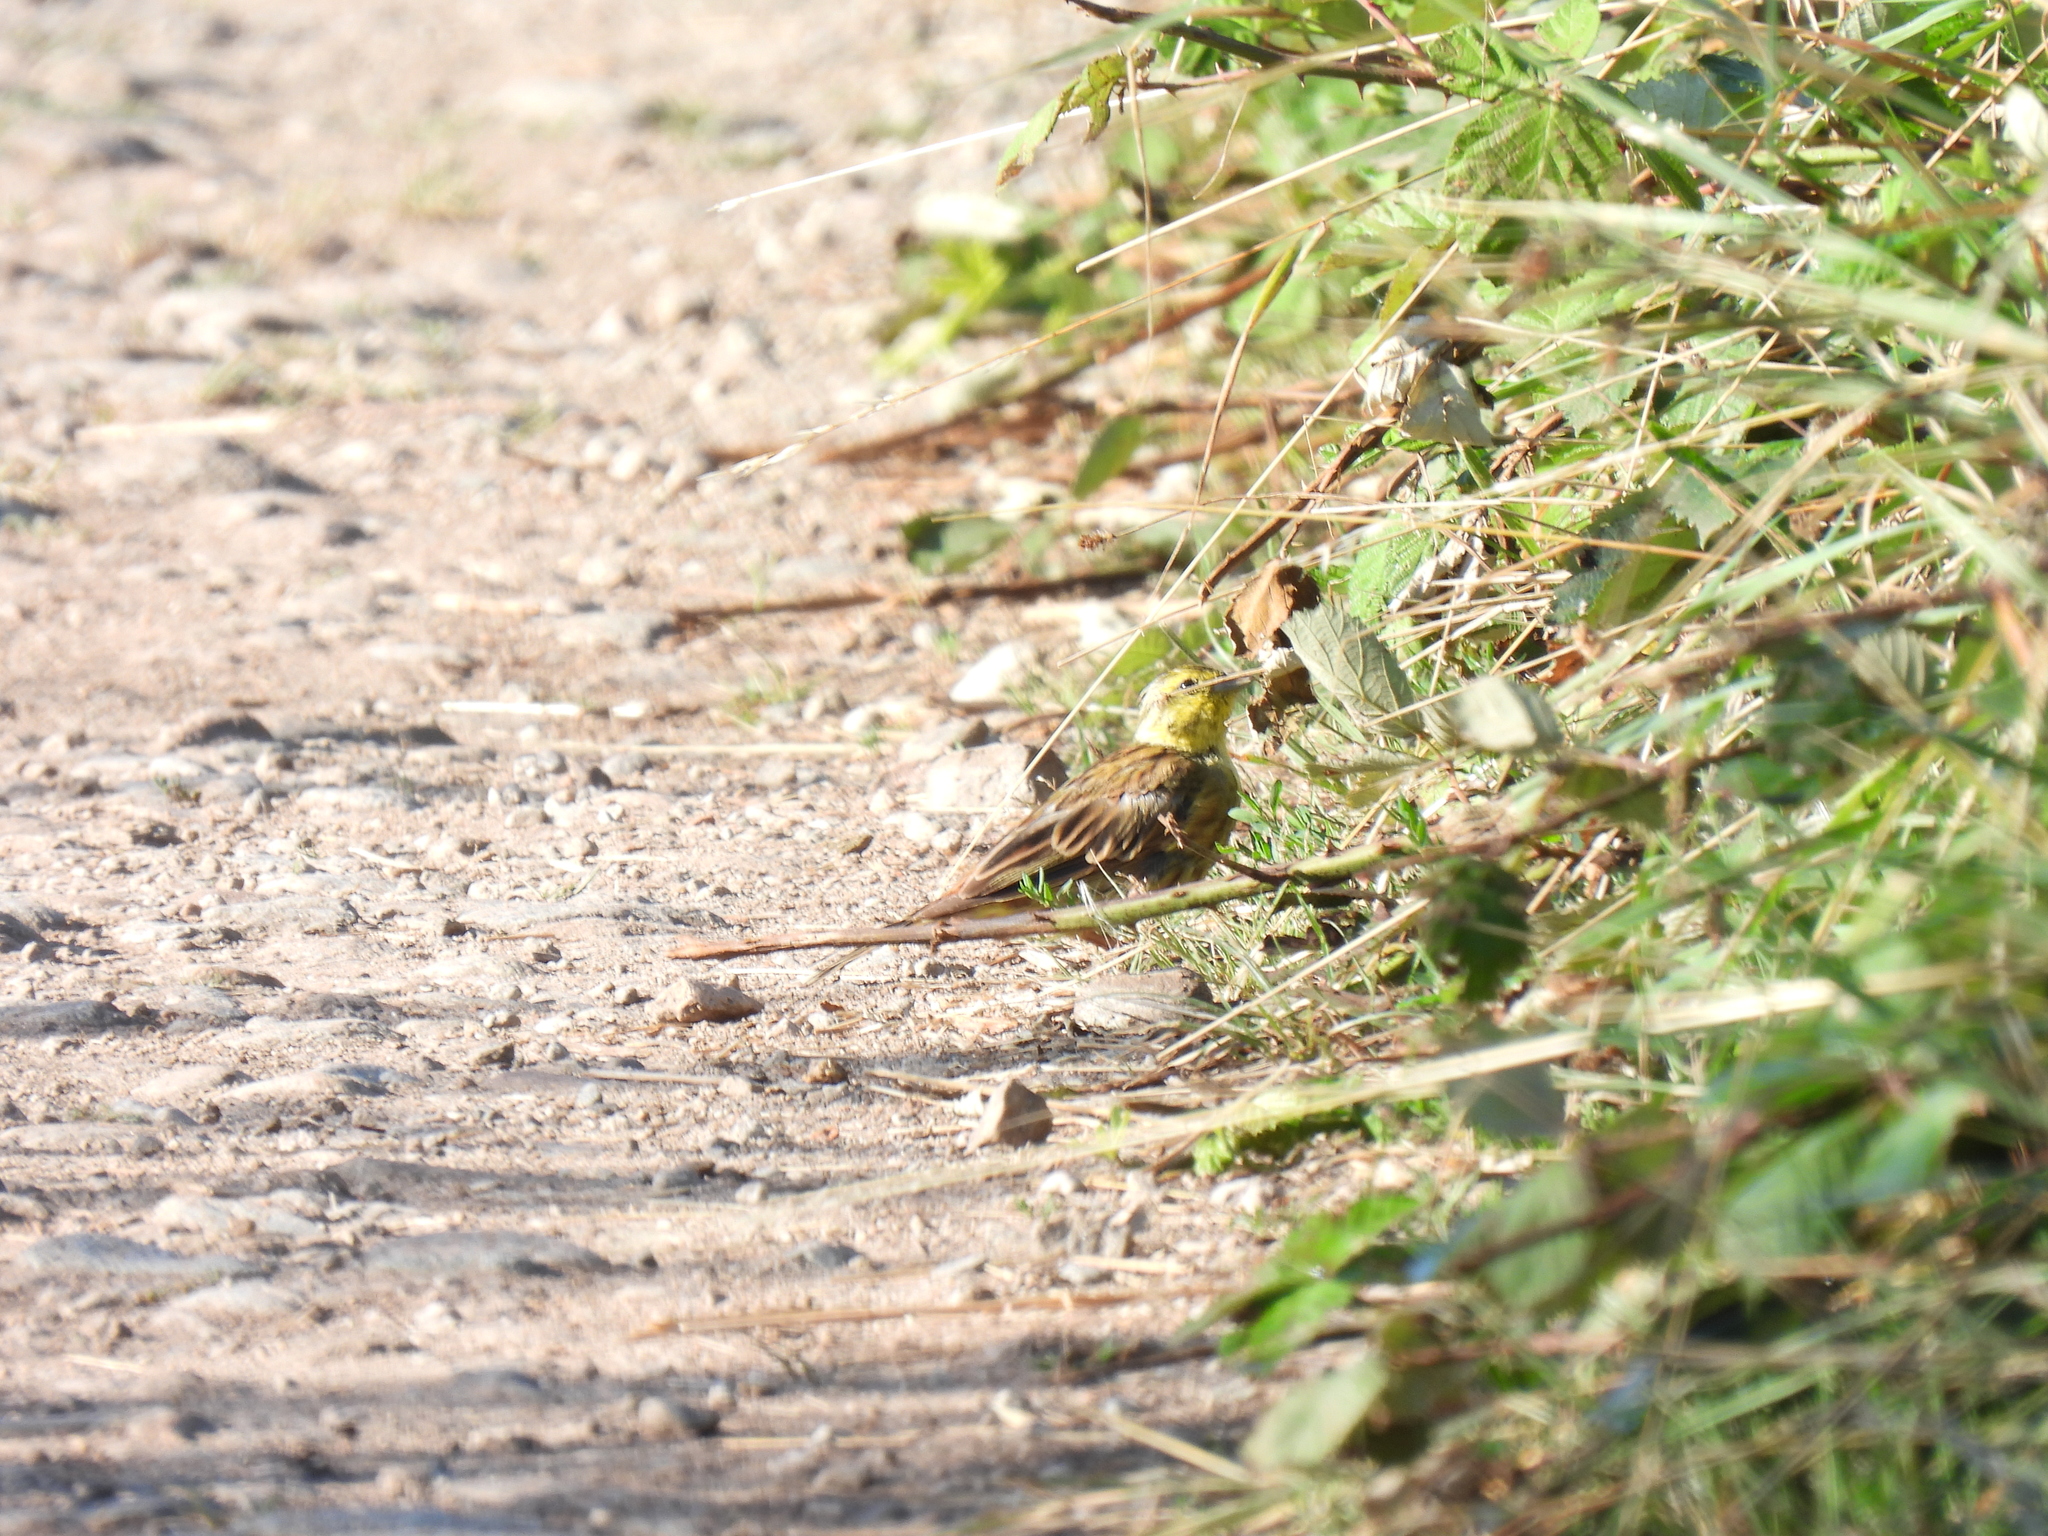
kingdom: Animalia
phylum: Chordata
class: Aves
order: Passeriformes
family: Emberizidae
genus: Emberiza
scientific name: Emberiza citrinella
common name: Yellowhammer
